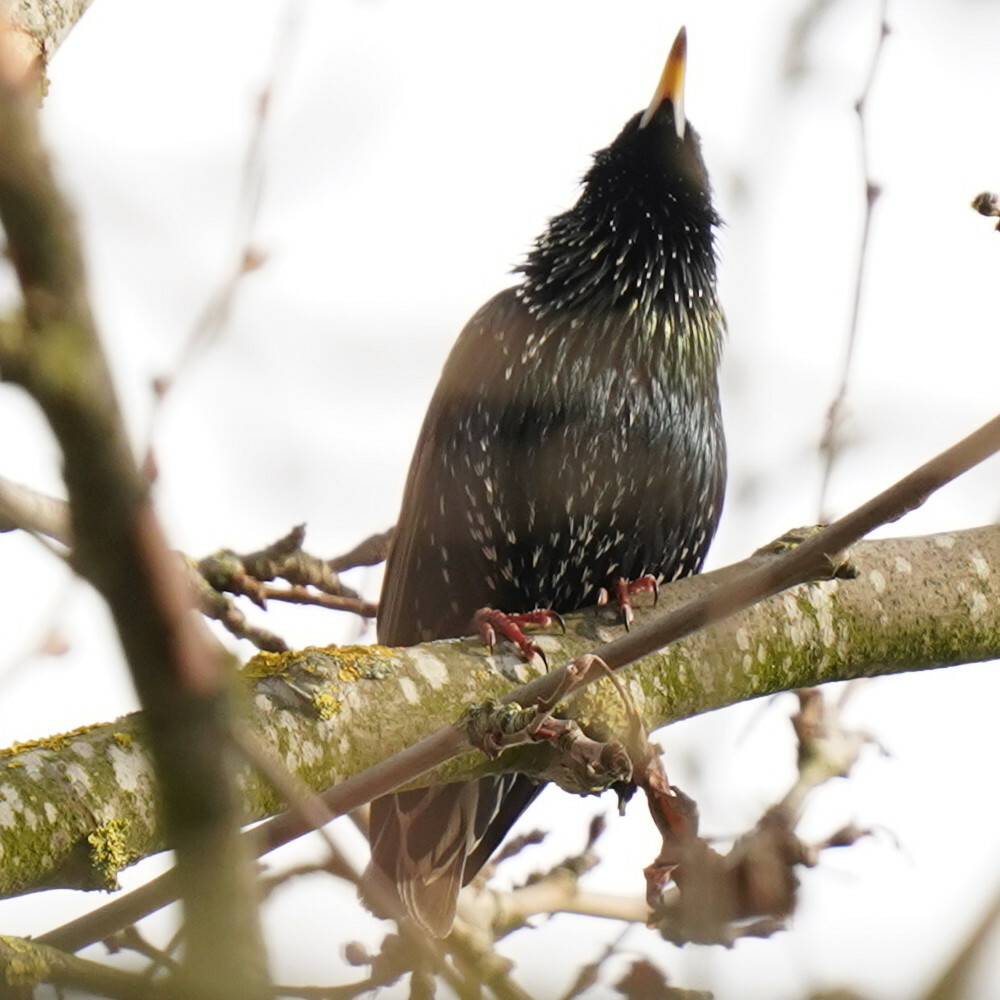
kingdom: Animalia
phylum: Chordata
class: Aves
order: Passeriformes
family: Sturnidae
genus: Sturnus
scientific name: Sturnus vulgaris
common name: Common starling
